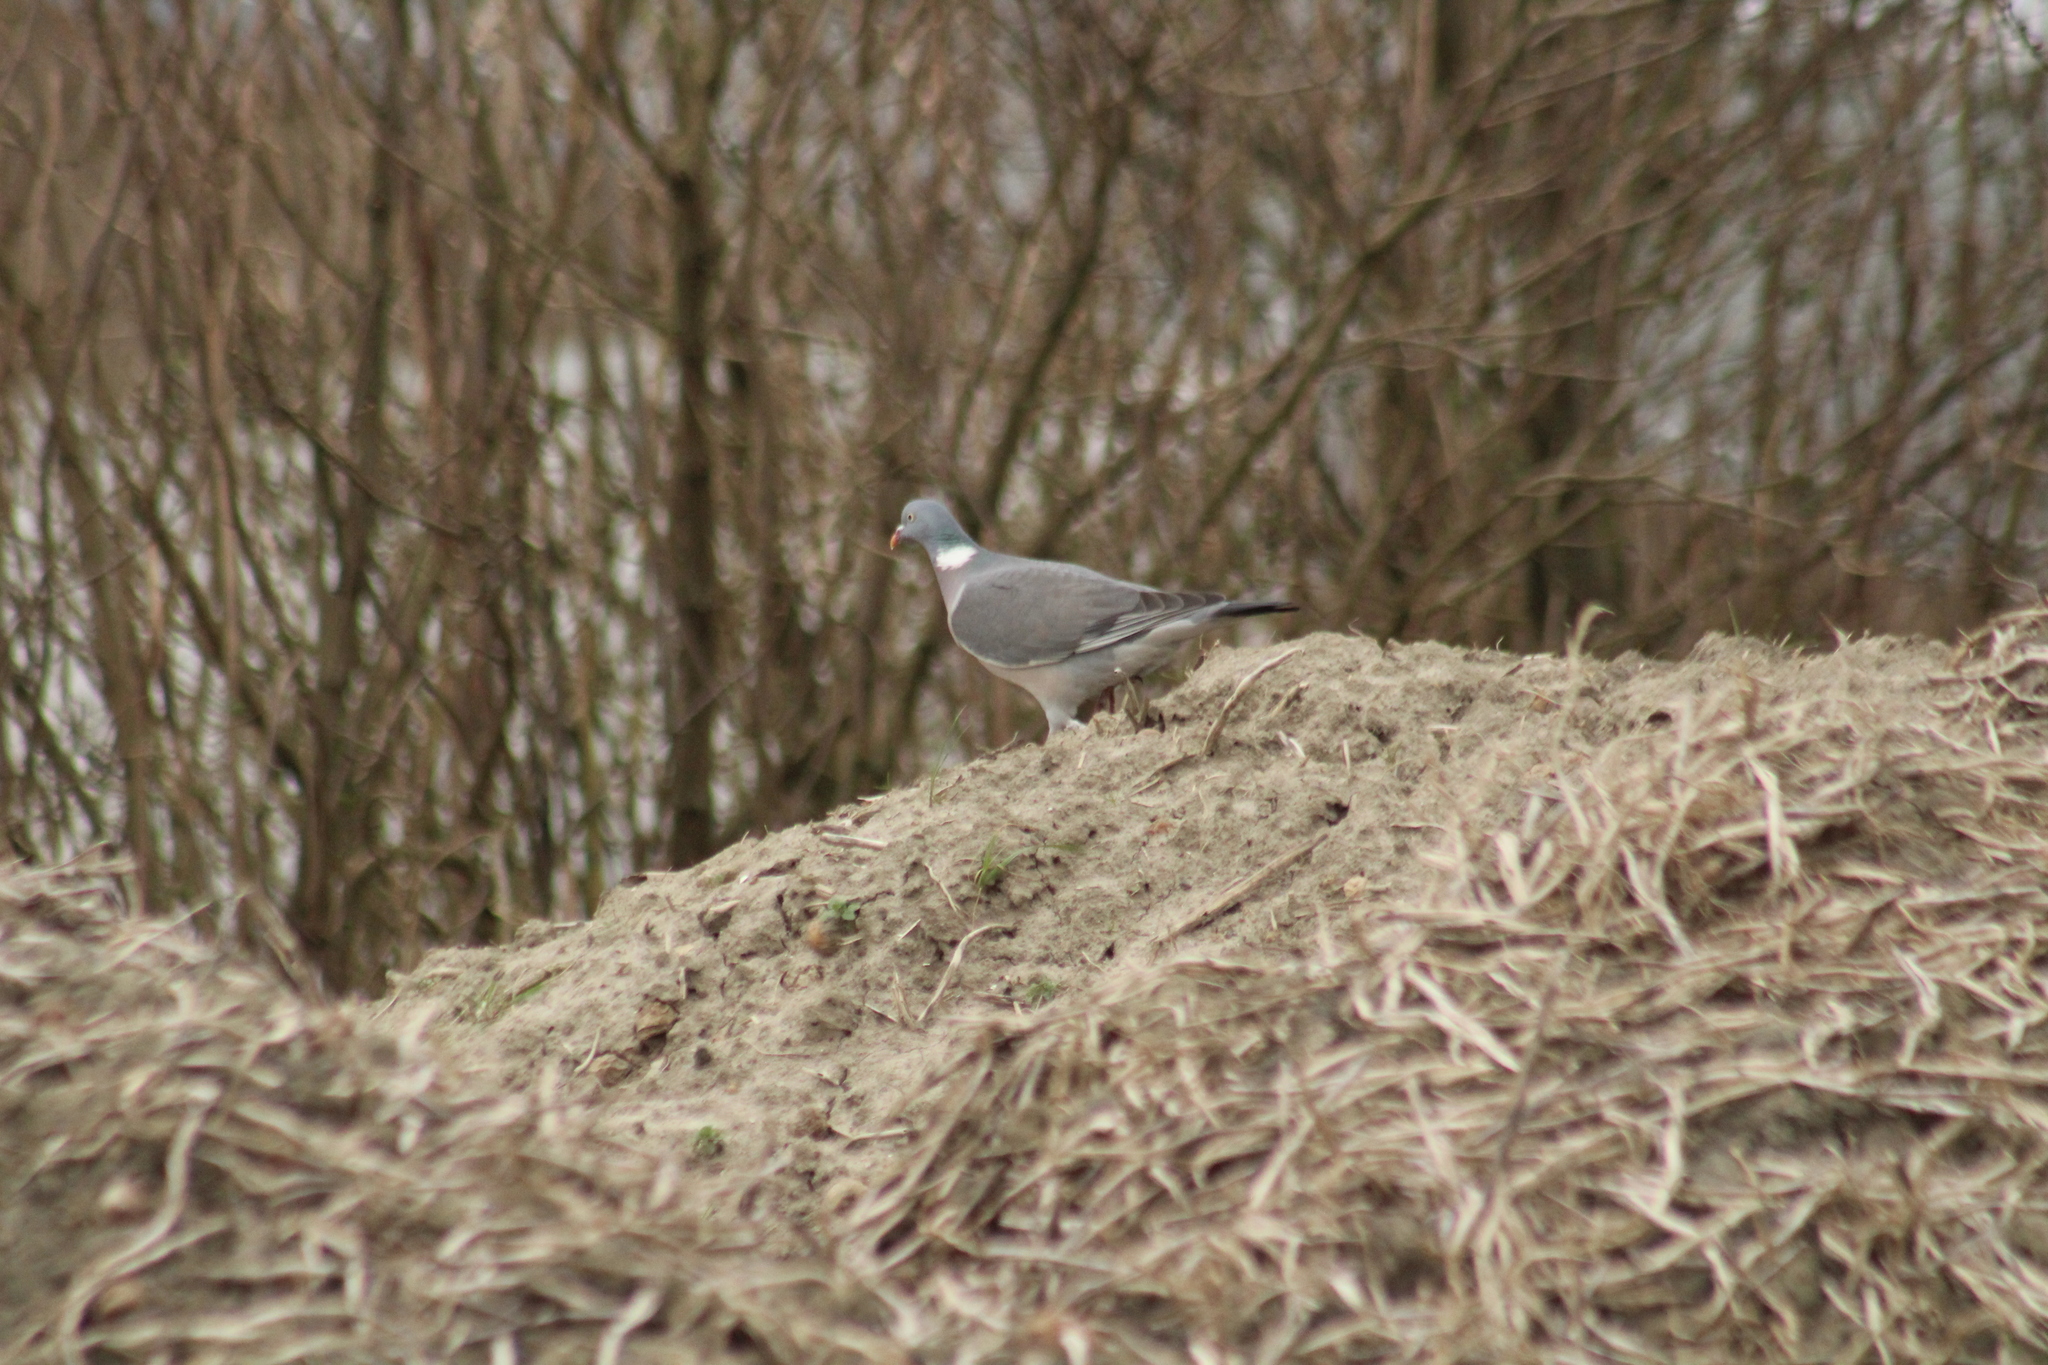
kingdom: Animalia
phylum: Chordata
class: Aves
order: Columbiformes
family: Columbidae
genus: Columba
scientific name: Columba palumbus
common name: Common wood pigeon
